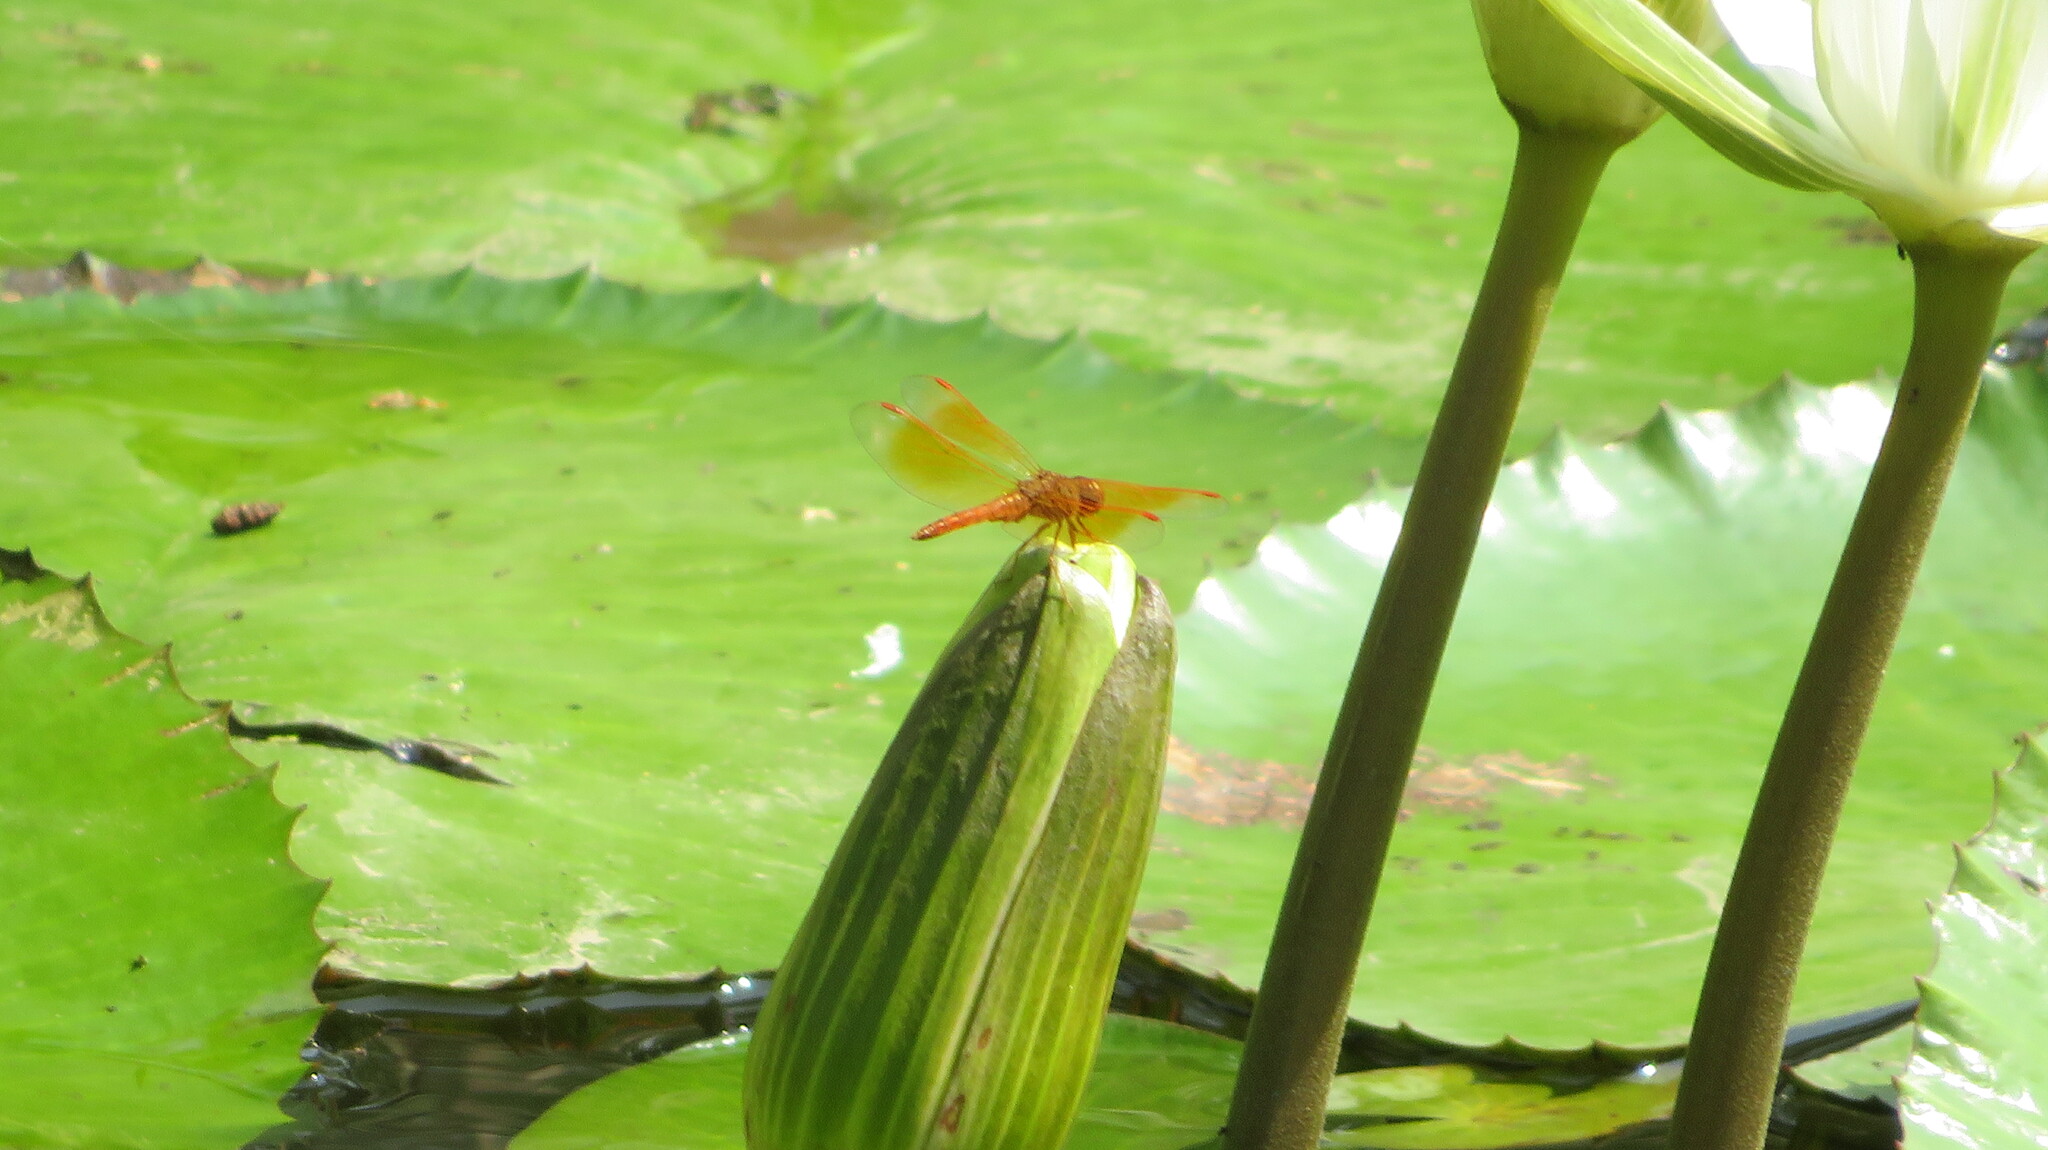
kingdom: Animalia
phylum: Arthropoda
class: Insecta
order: Odonata
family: Libellulidae
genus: Brachythemis
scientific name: Brachythemis contaminata
